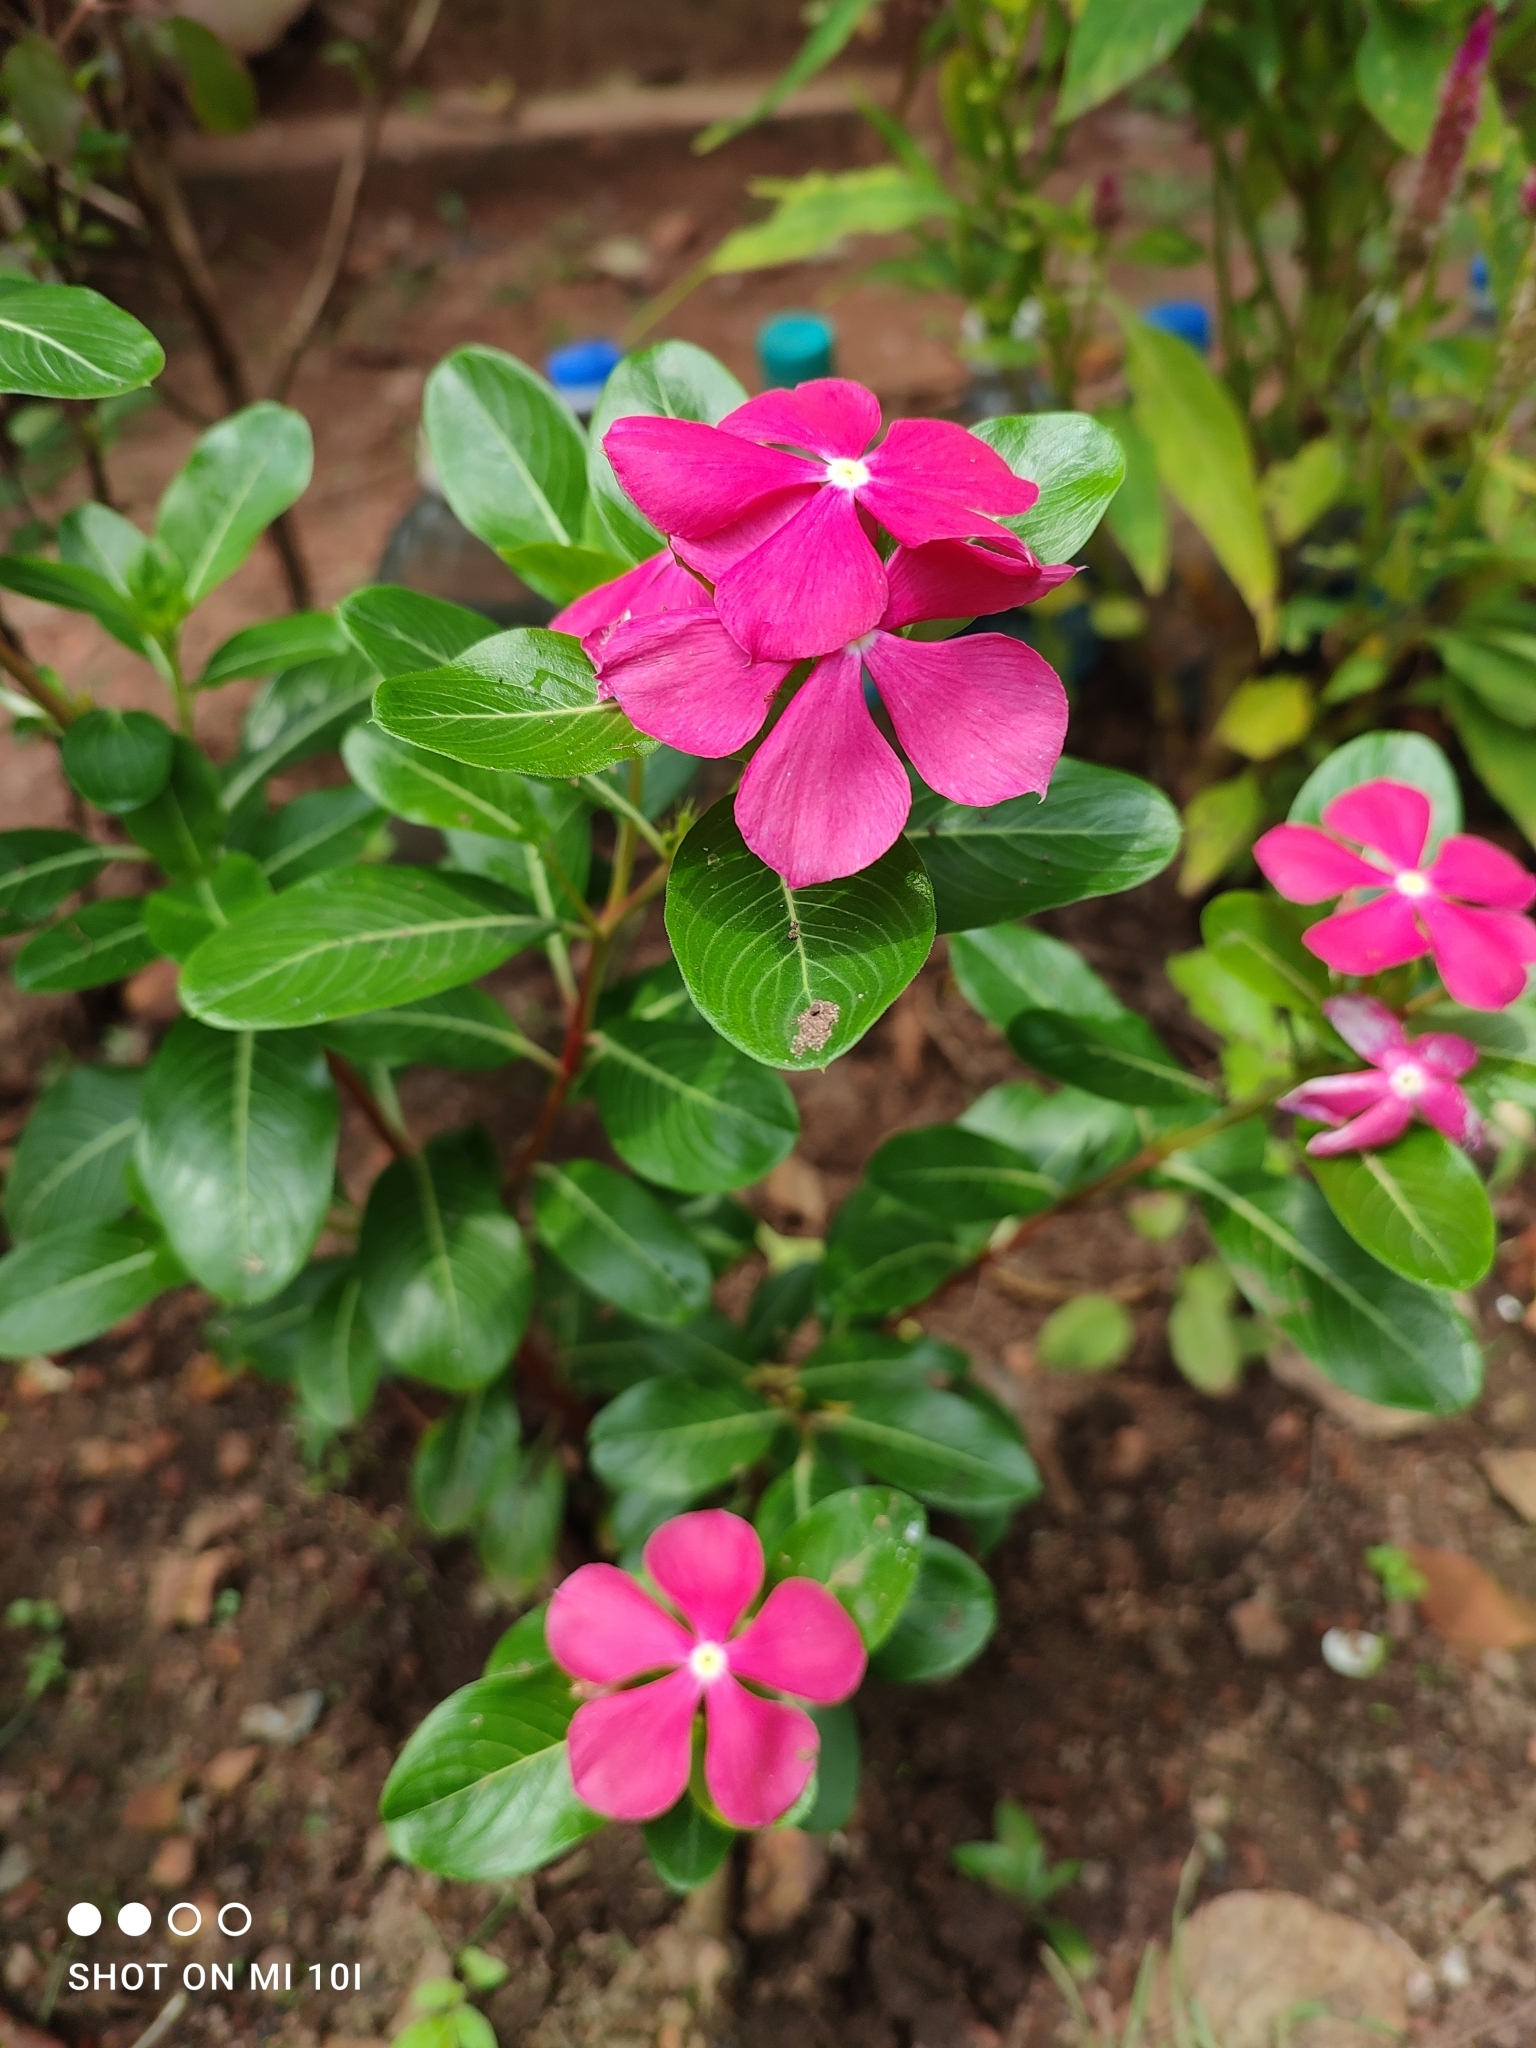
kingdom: Plantae
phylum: Tracheophyta
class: Magnoliopsida
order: Gentianales
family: Apocynaceae
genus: Catharanthus
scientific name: Catharanthus roseus
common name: Madagascar periwinkle
